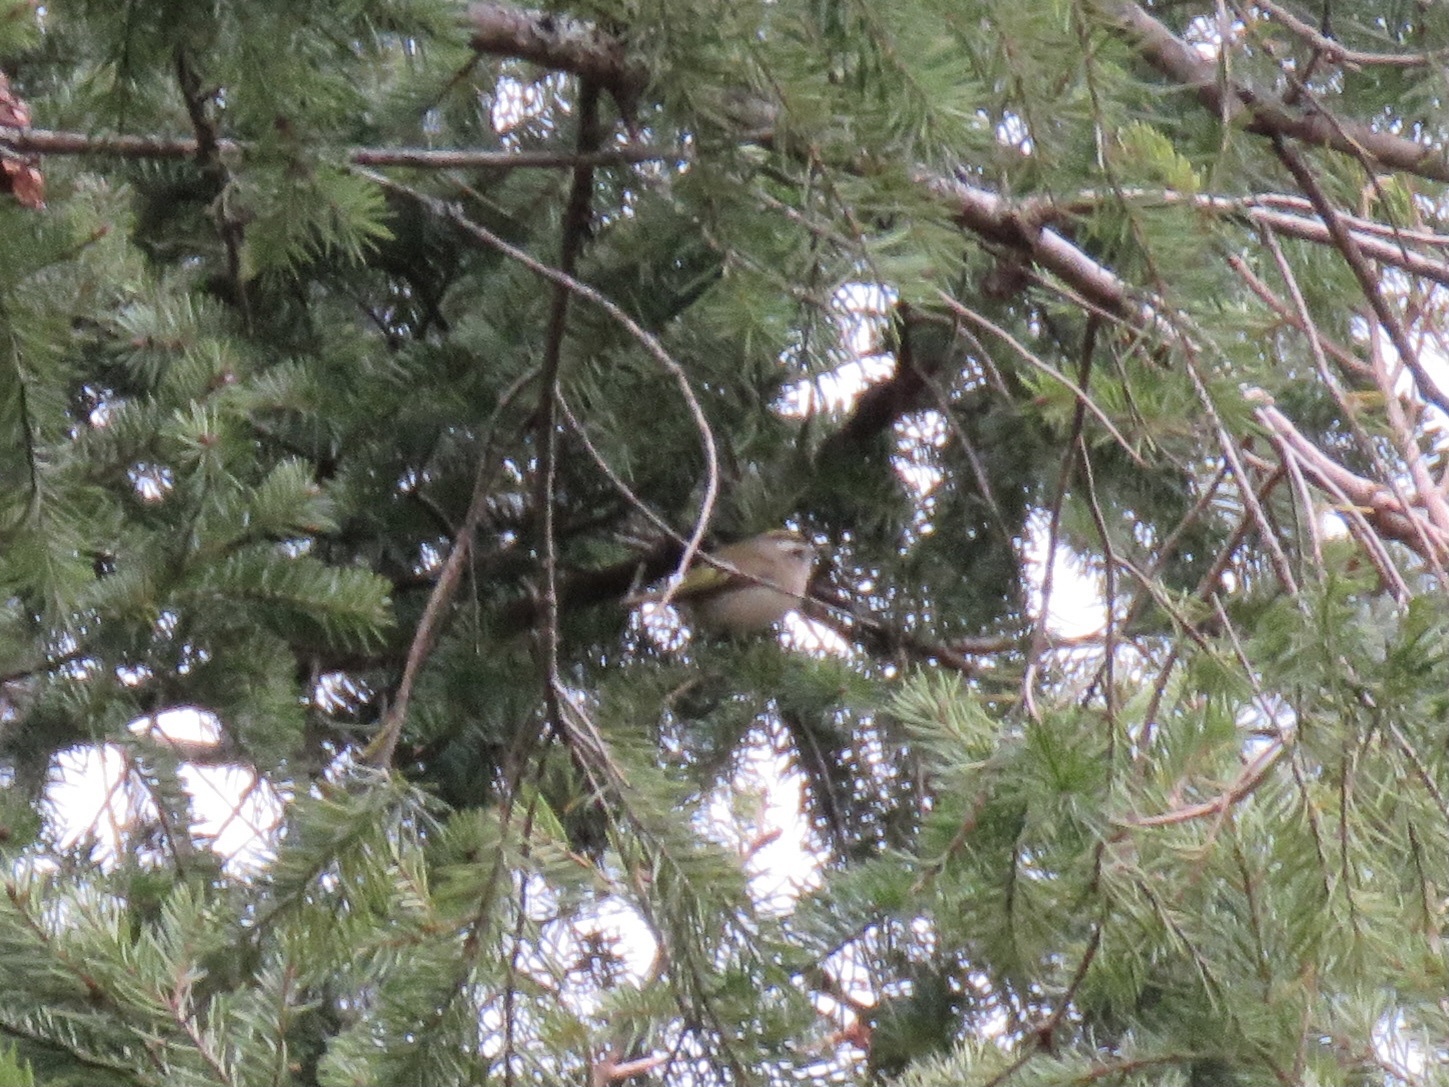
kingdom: Animalia
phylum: Chordata
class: Aves
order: Passeriformes
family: Regulidae
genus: Regulus
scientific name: Regulus satrapa
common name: Golden-crowned kinglet
